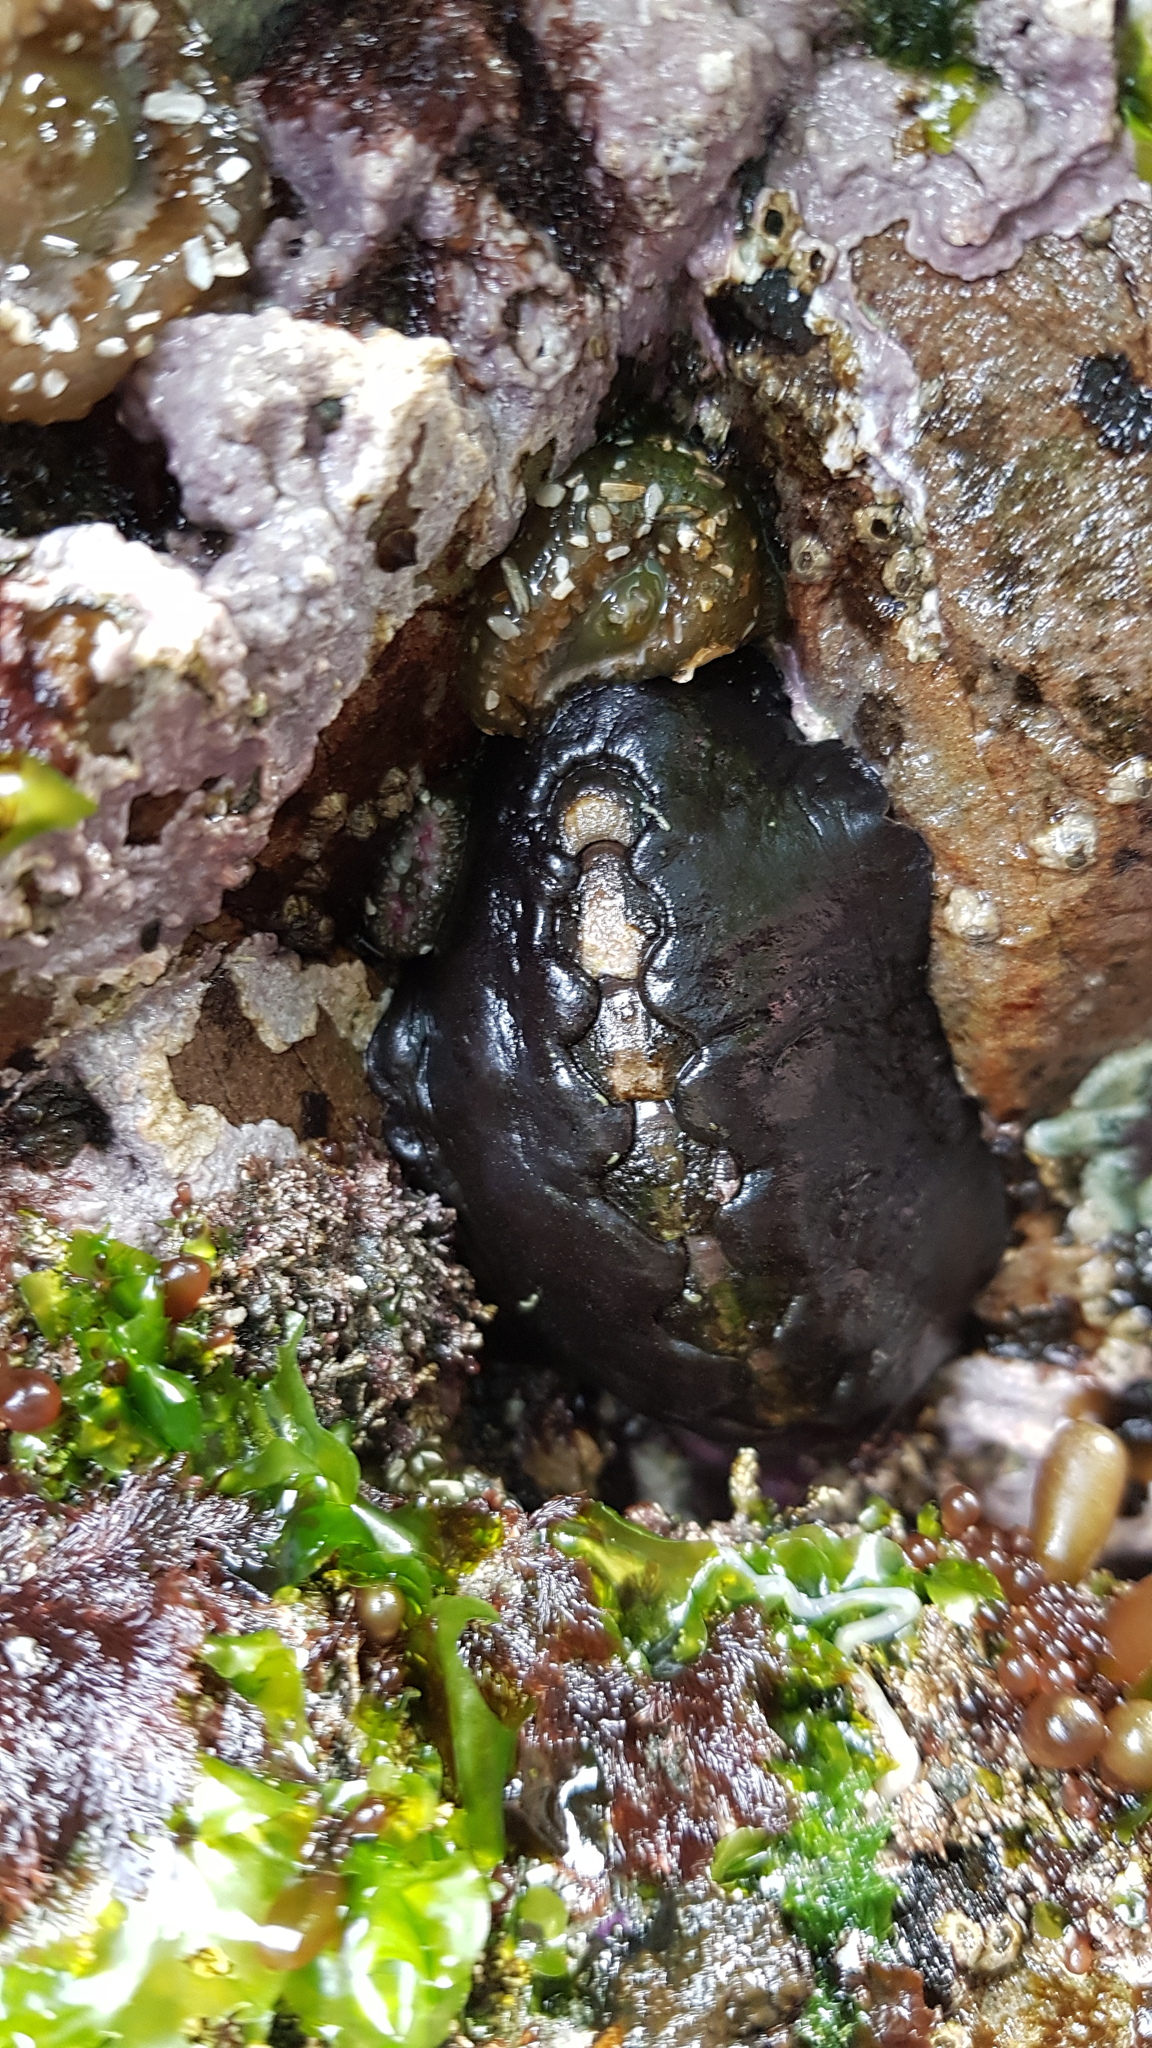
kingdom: Animalia
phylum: Mollusca
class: Polyplacophora
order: Chitonida
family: Mopaliidae
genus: Katharina
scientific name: Katharina tunicata
